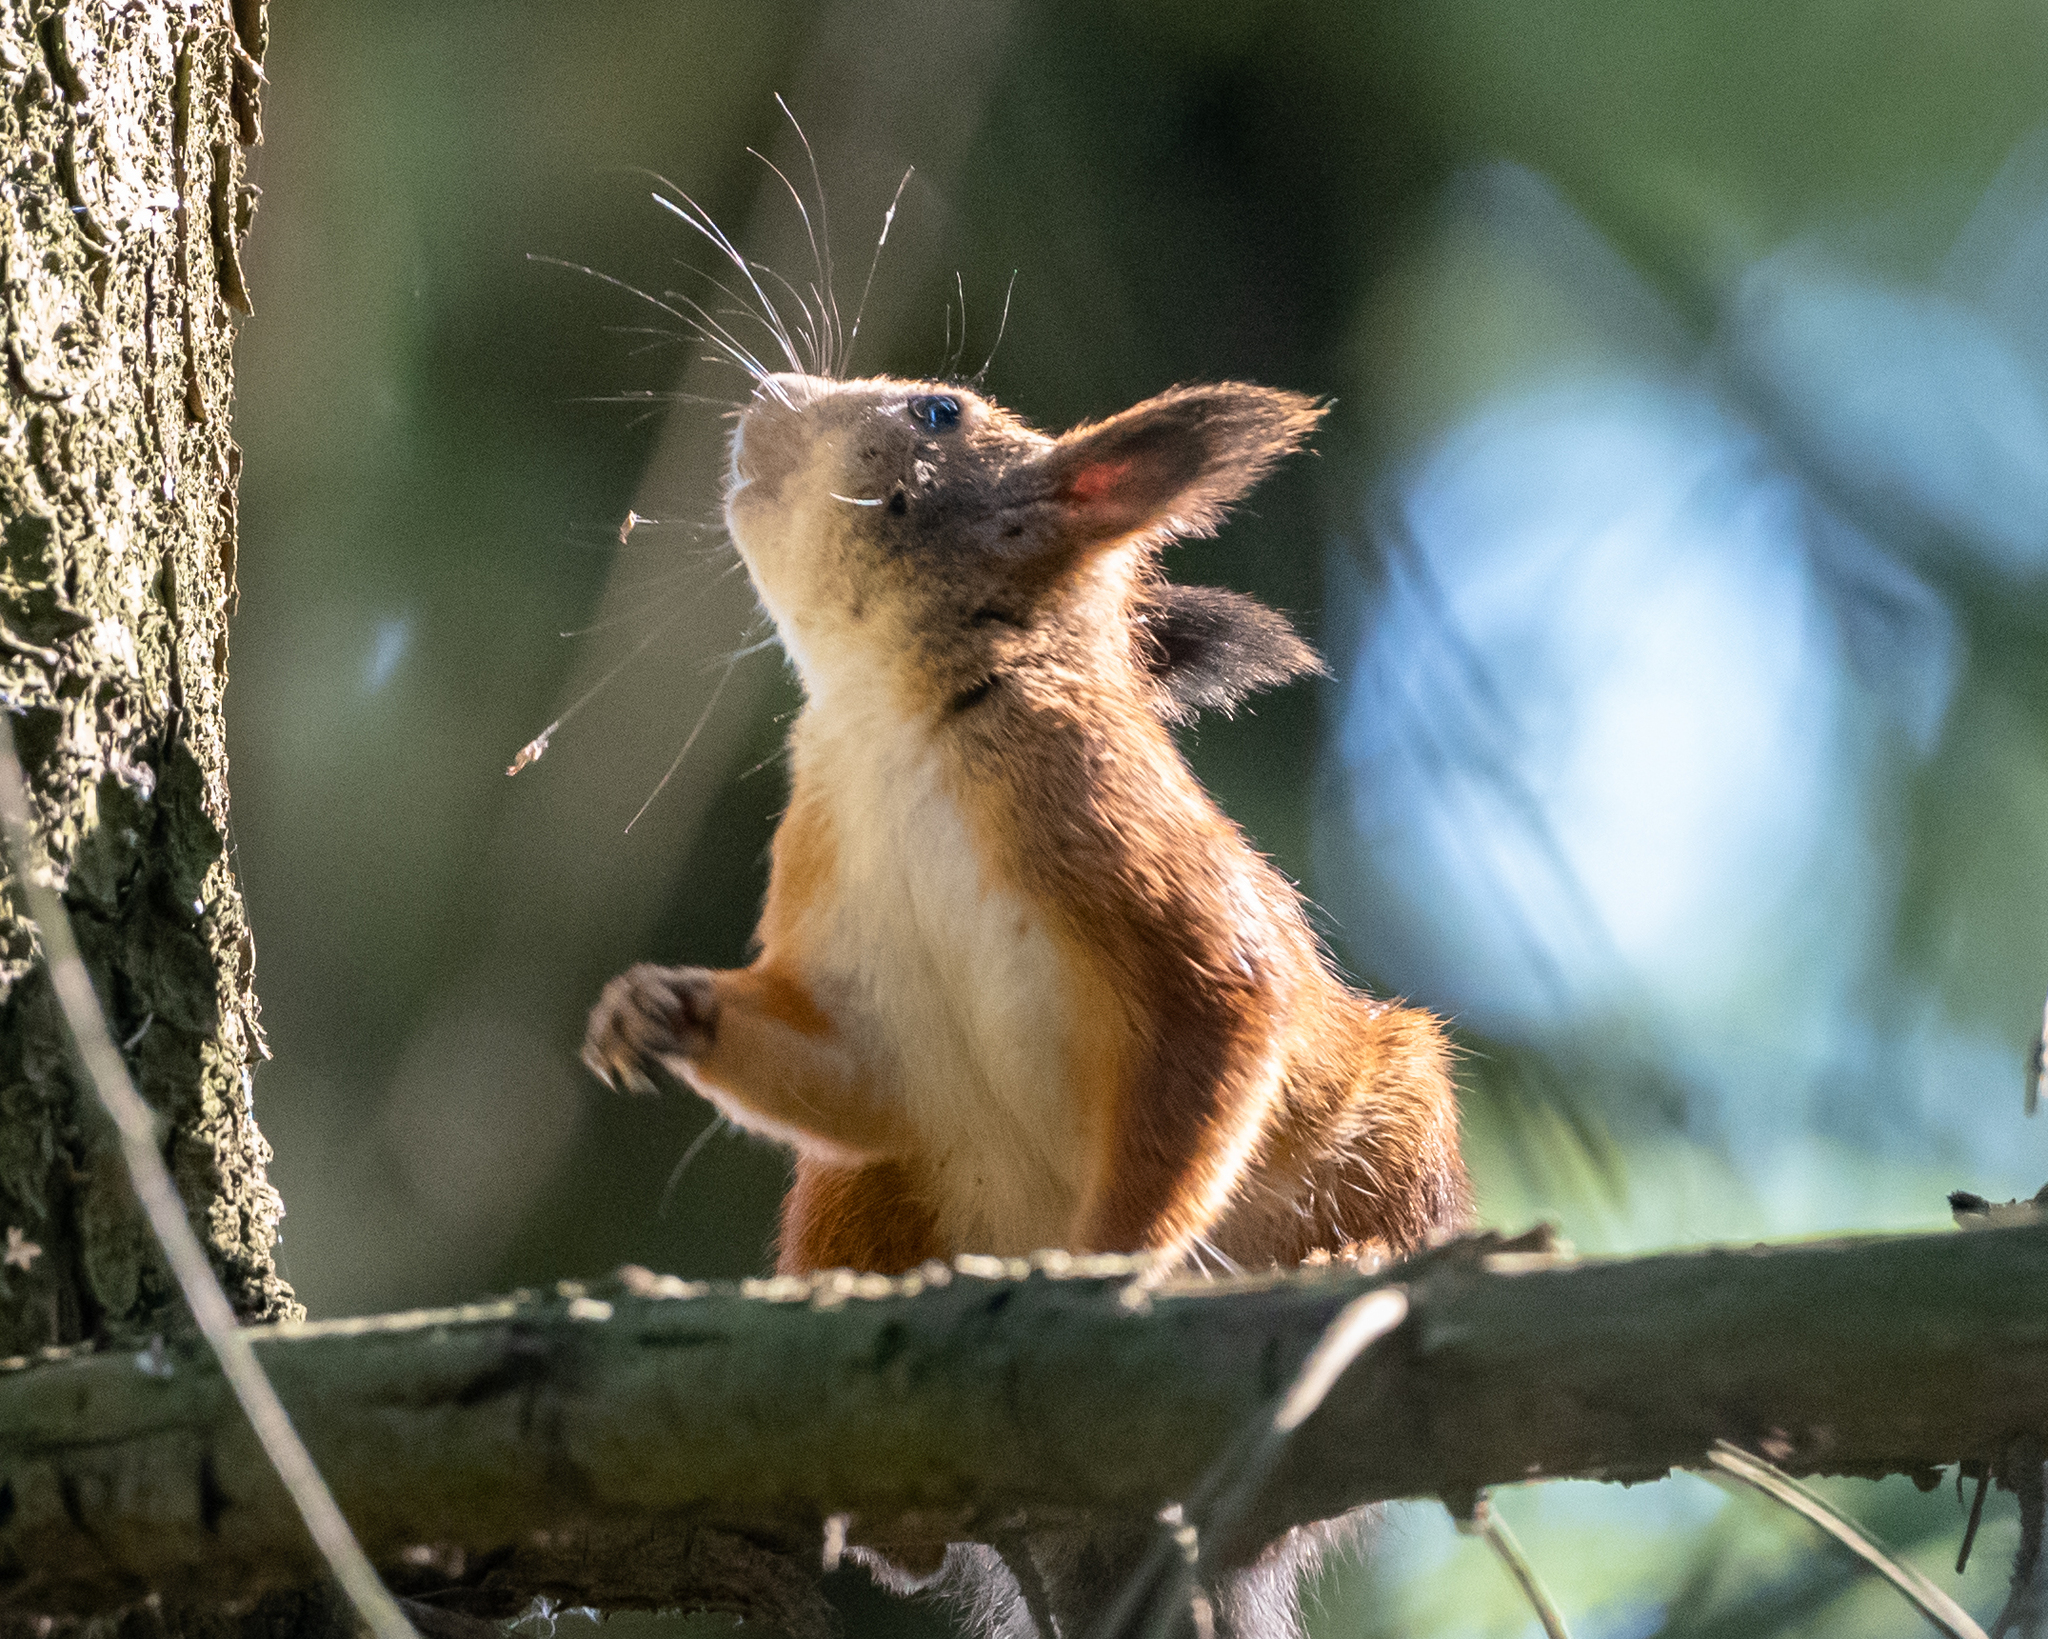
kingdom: Animalia
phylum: Chordata
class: Mammalia
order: Rodentia
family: Sciuridae
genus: Sciurus
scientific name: Sciurus vulgaris
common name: Eurasian red squirrel
